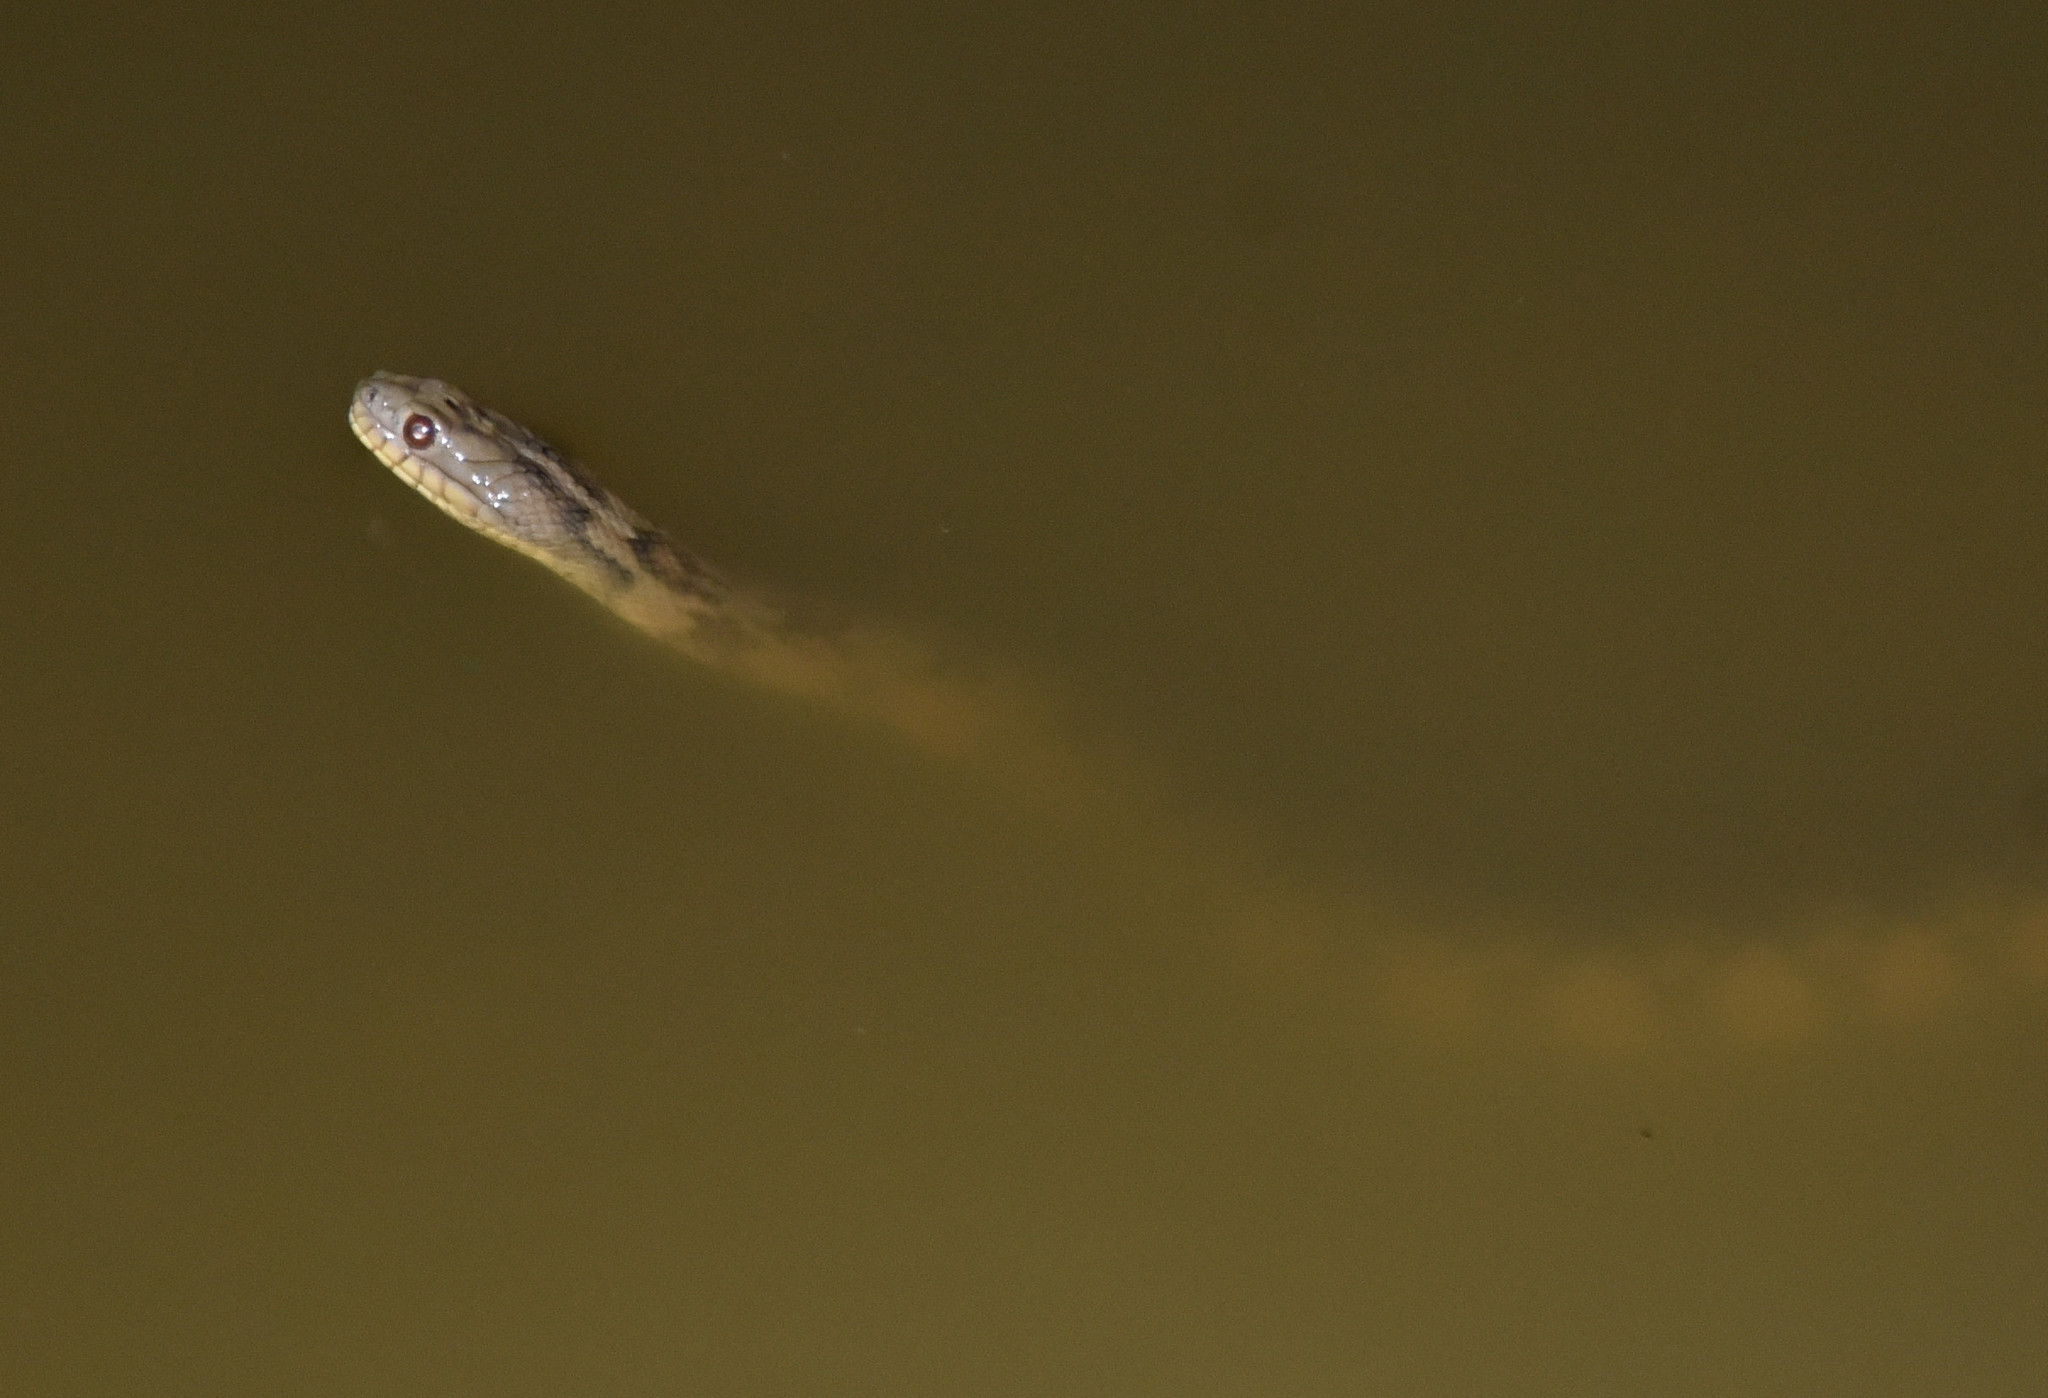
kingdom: Animalia
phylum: Chordata
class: Squamata
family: Colubridae
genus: Nerodia
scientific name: Nerodia rhombifer
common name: Diamondback water snake
